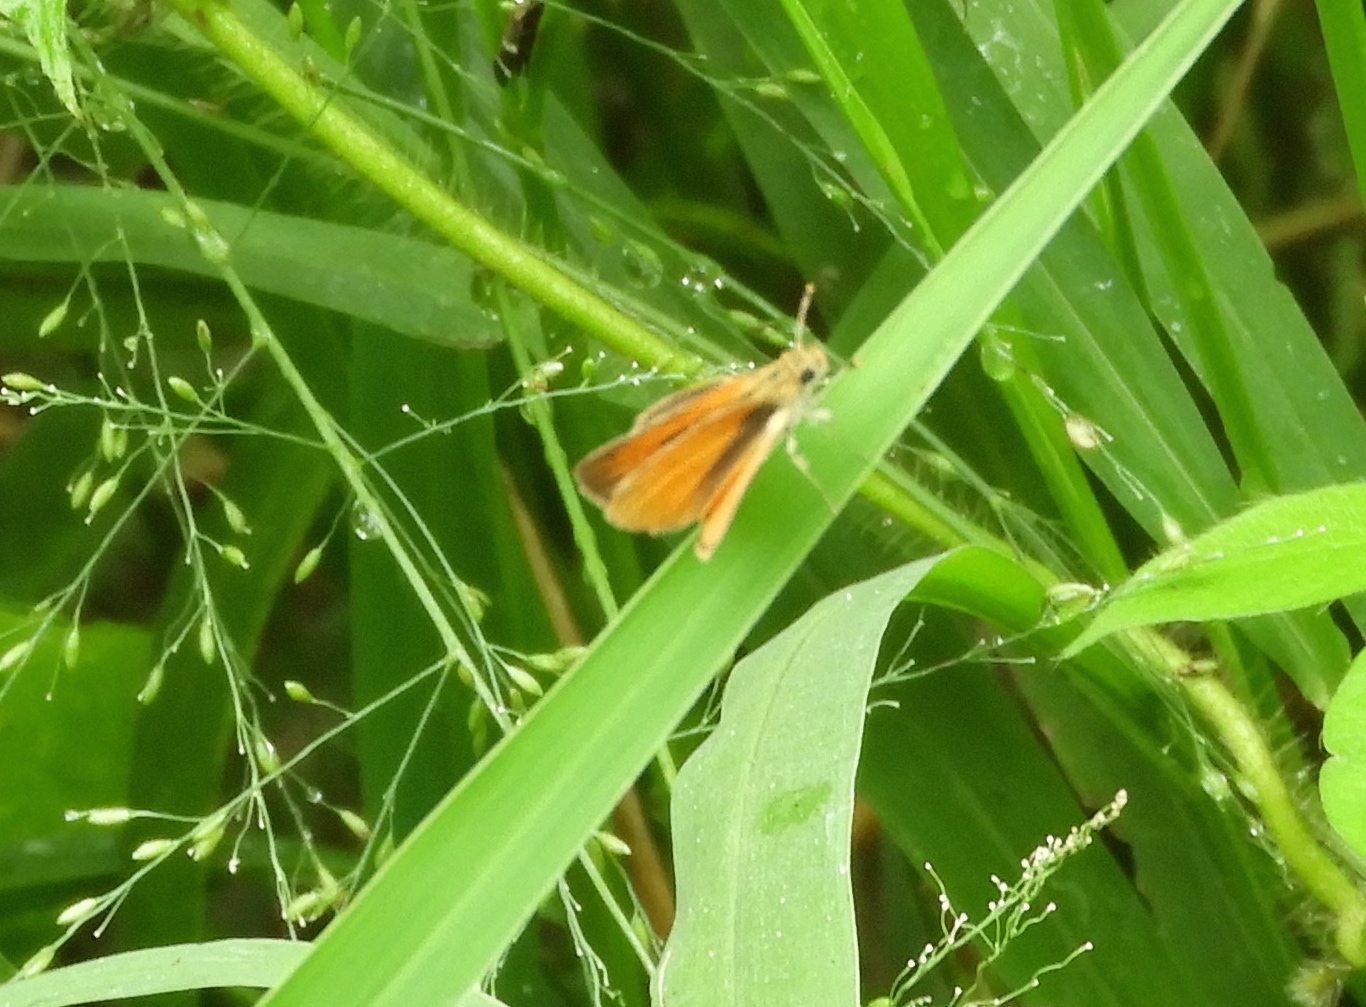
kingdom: Animalia
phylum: Arthropoda
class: Insecta
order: Lepidoptera
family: Hesperiidae
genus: Copaeodes
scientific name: Copaeodes
